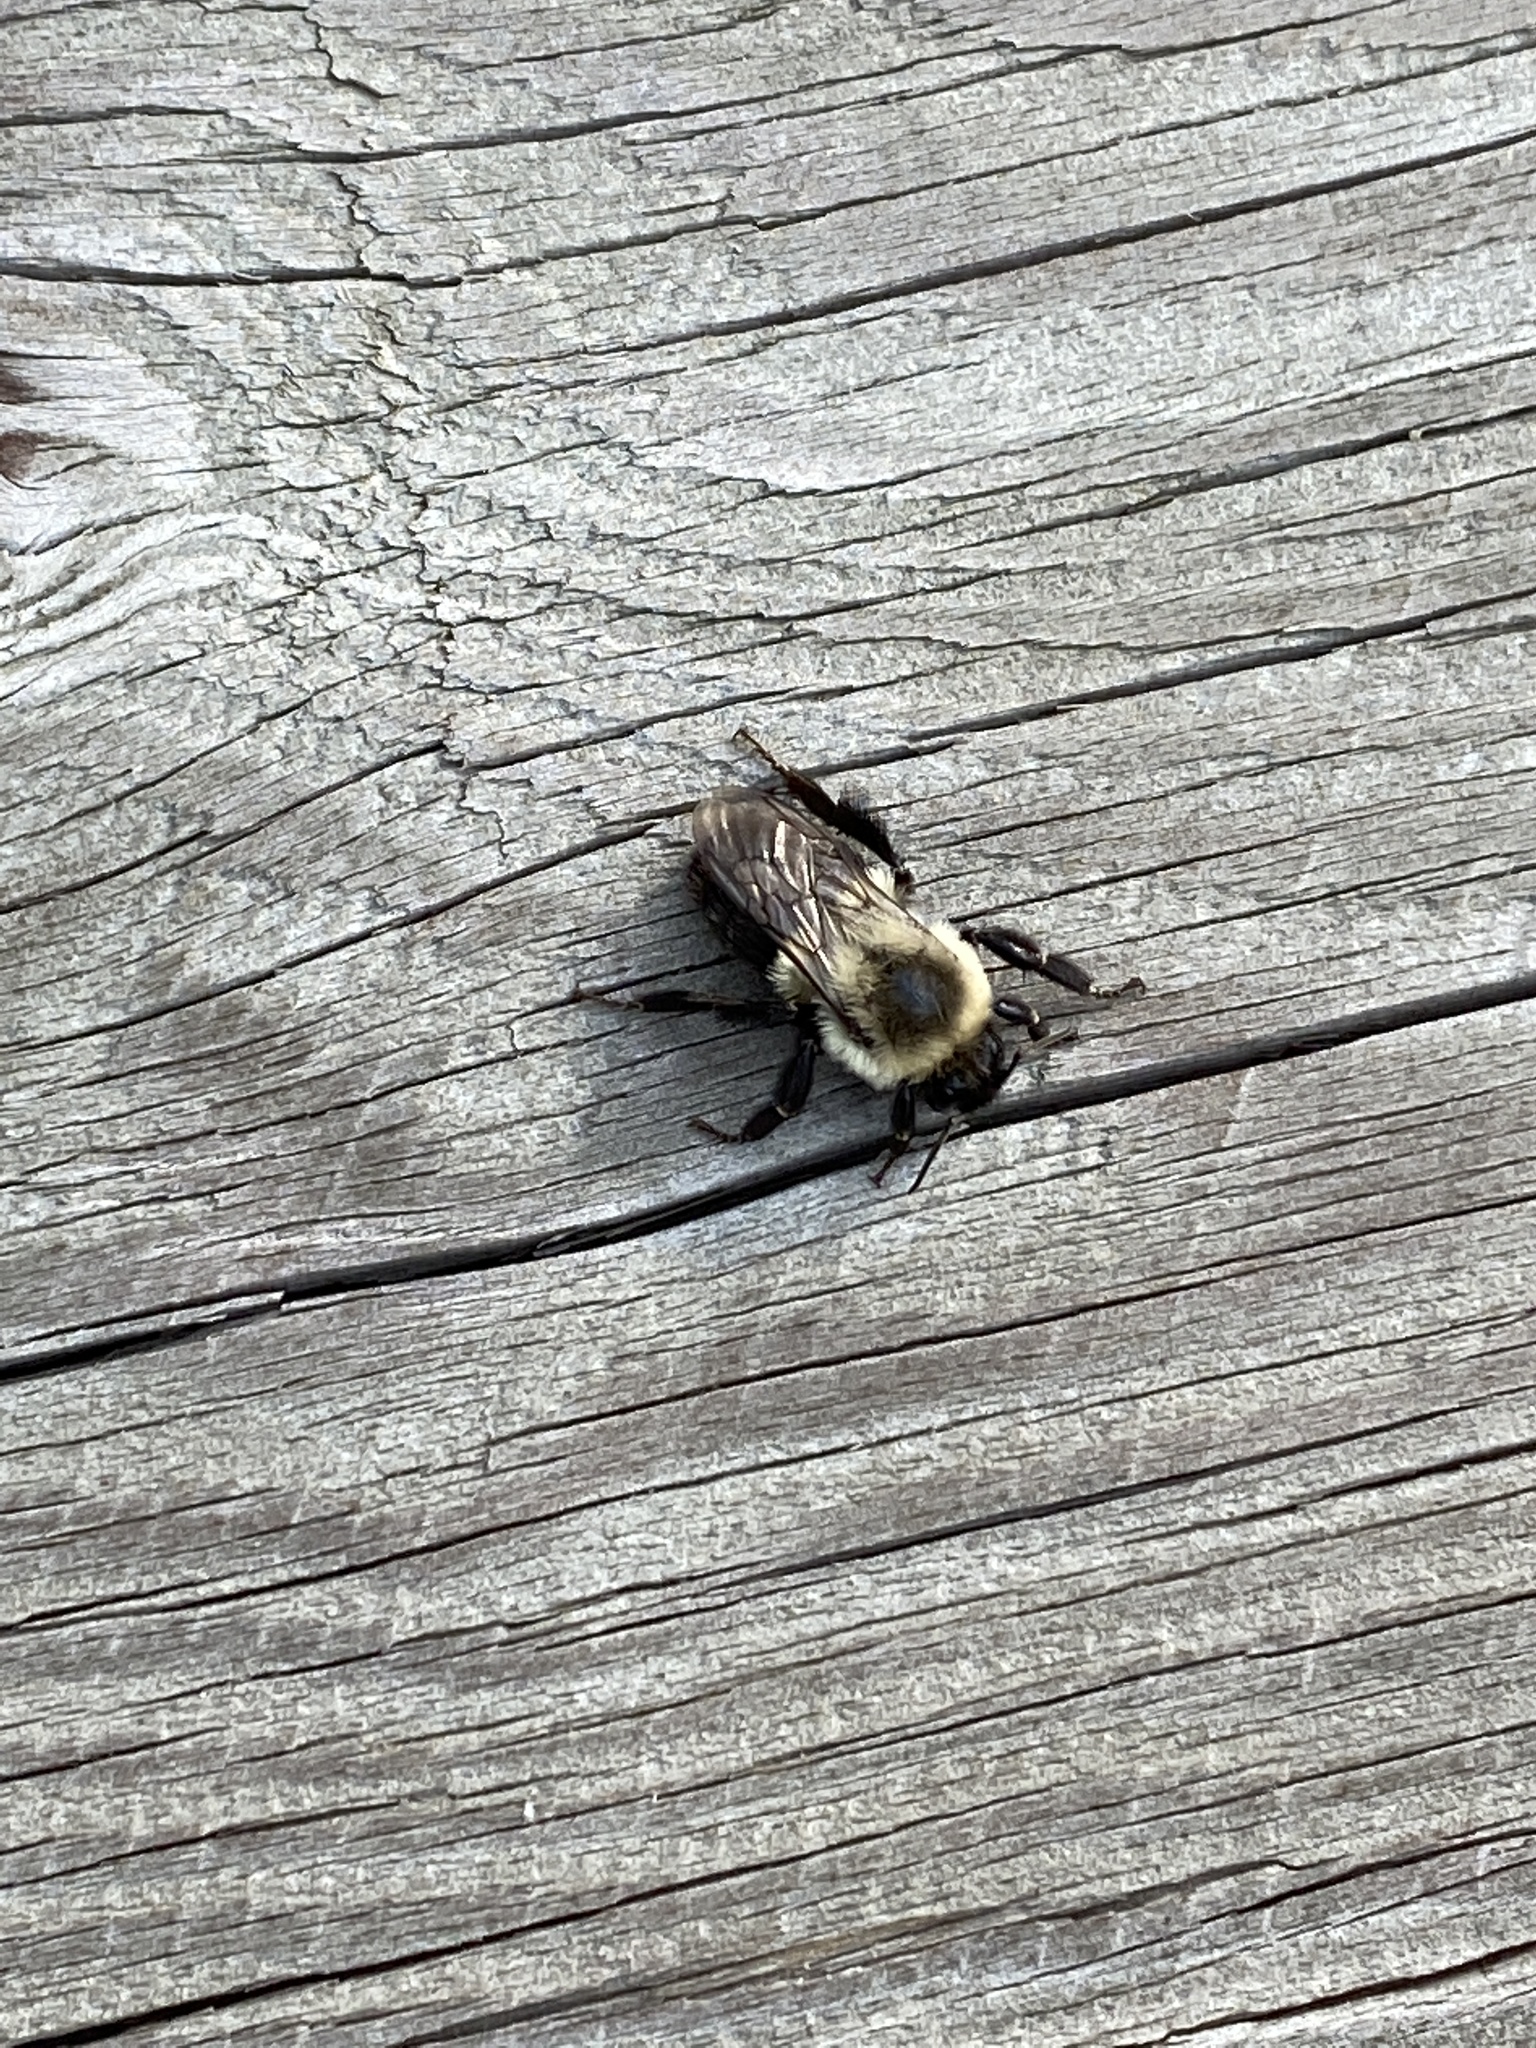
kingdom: Animalia
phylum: Arthropoda
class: Insecta
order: Hymenoptera
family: Apidae
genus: Bombus
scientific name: Bombus impatiens
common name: Common eastern bumble bee
